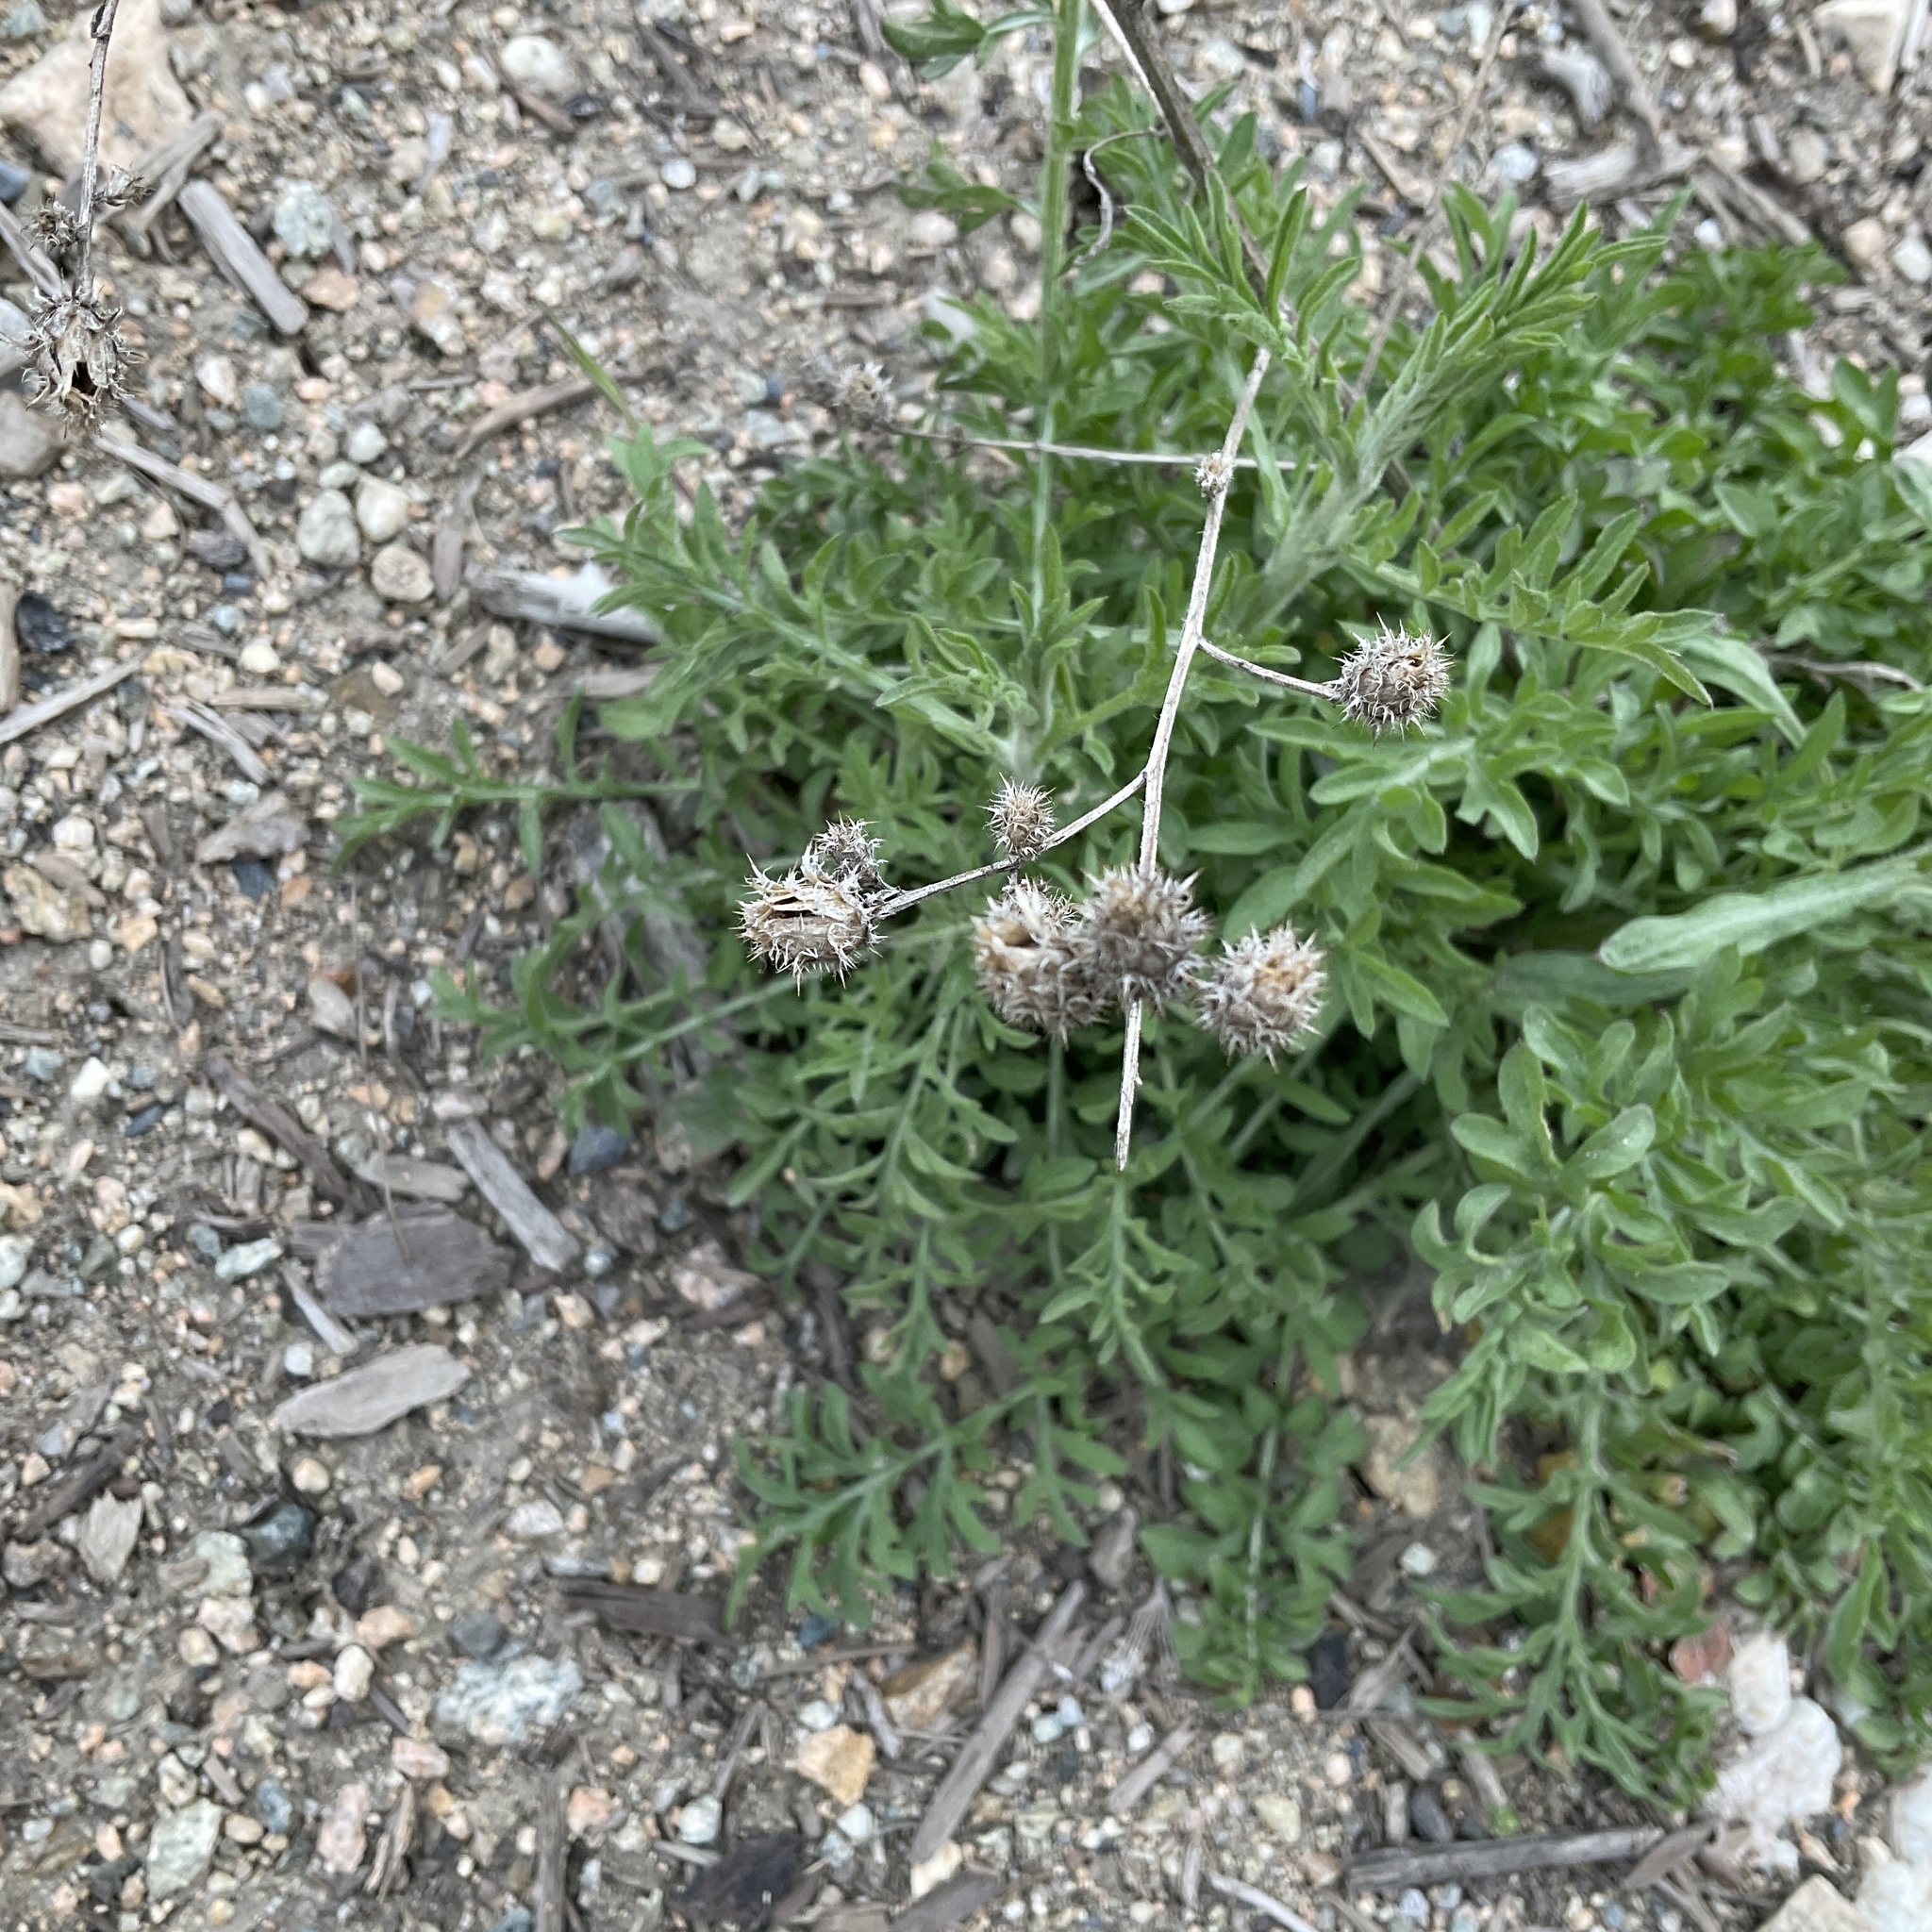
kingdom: Plantae
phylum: Tracheophyta
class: Magnoliopsida
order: Asterales
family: Asteraceae
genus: Centaurea
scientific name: Centaurea diffusa
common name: Diffuse knapweed
